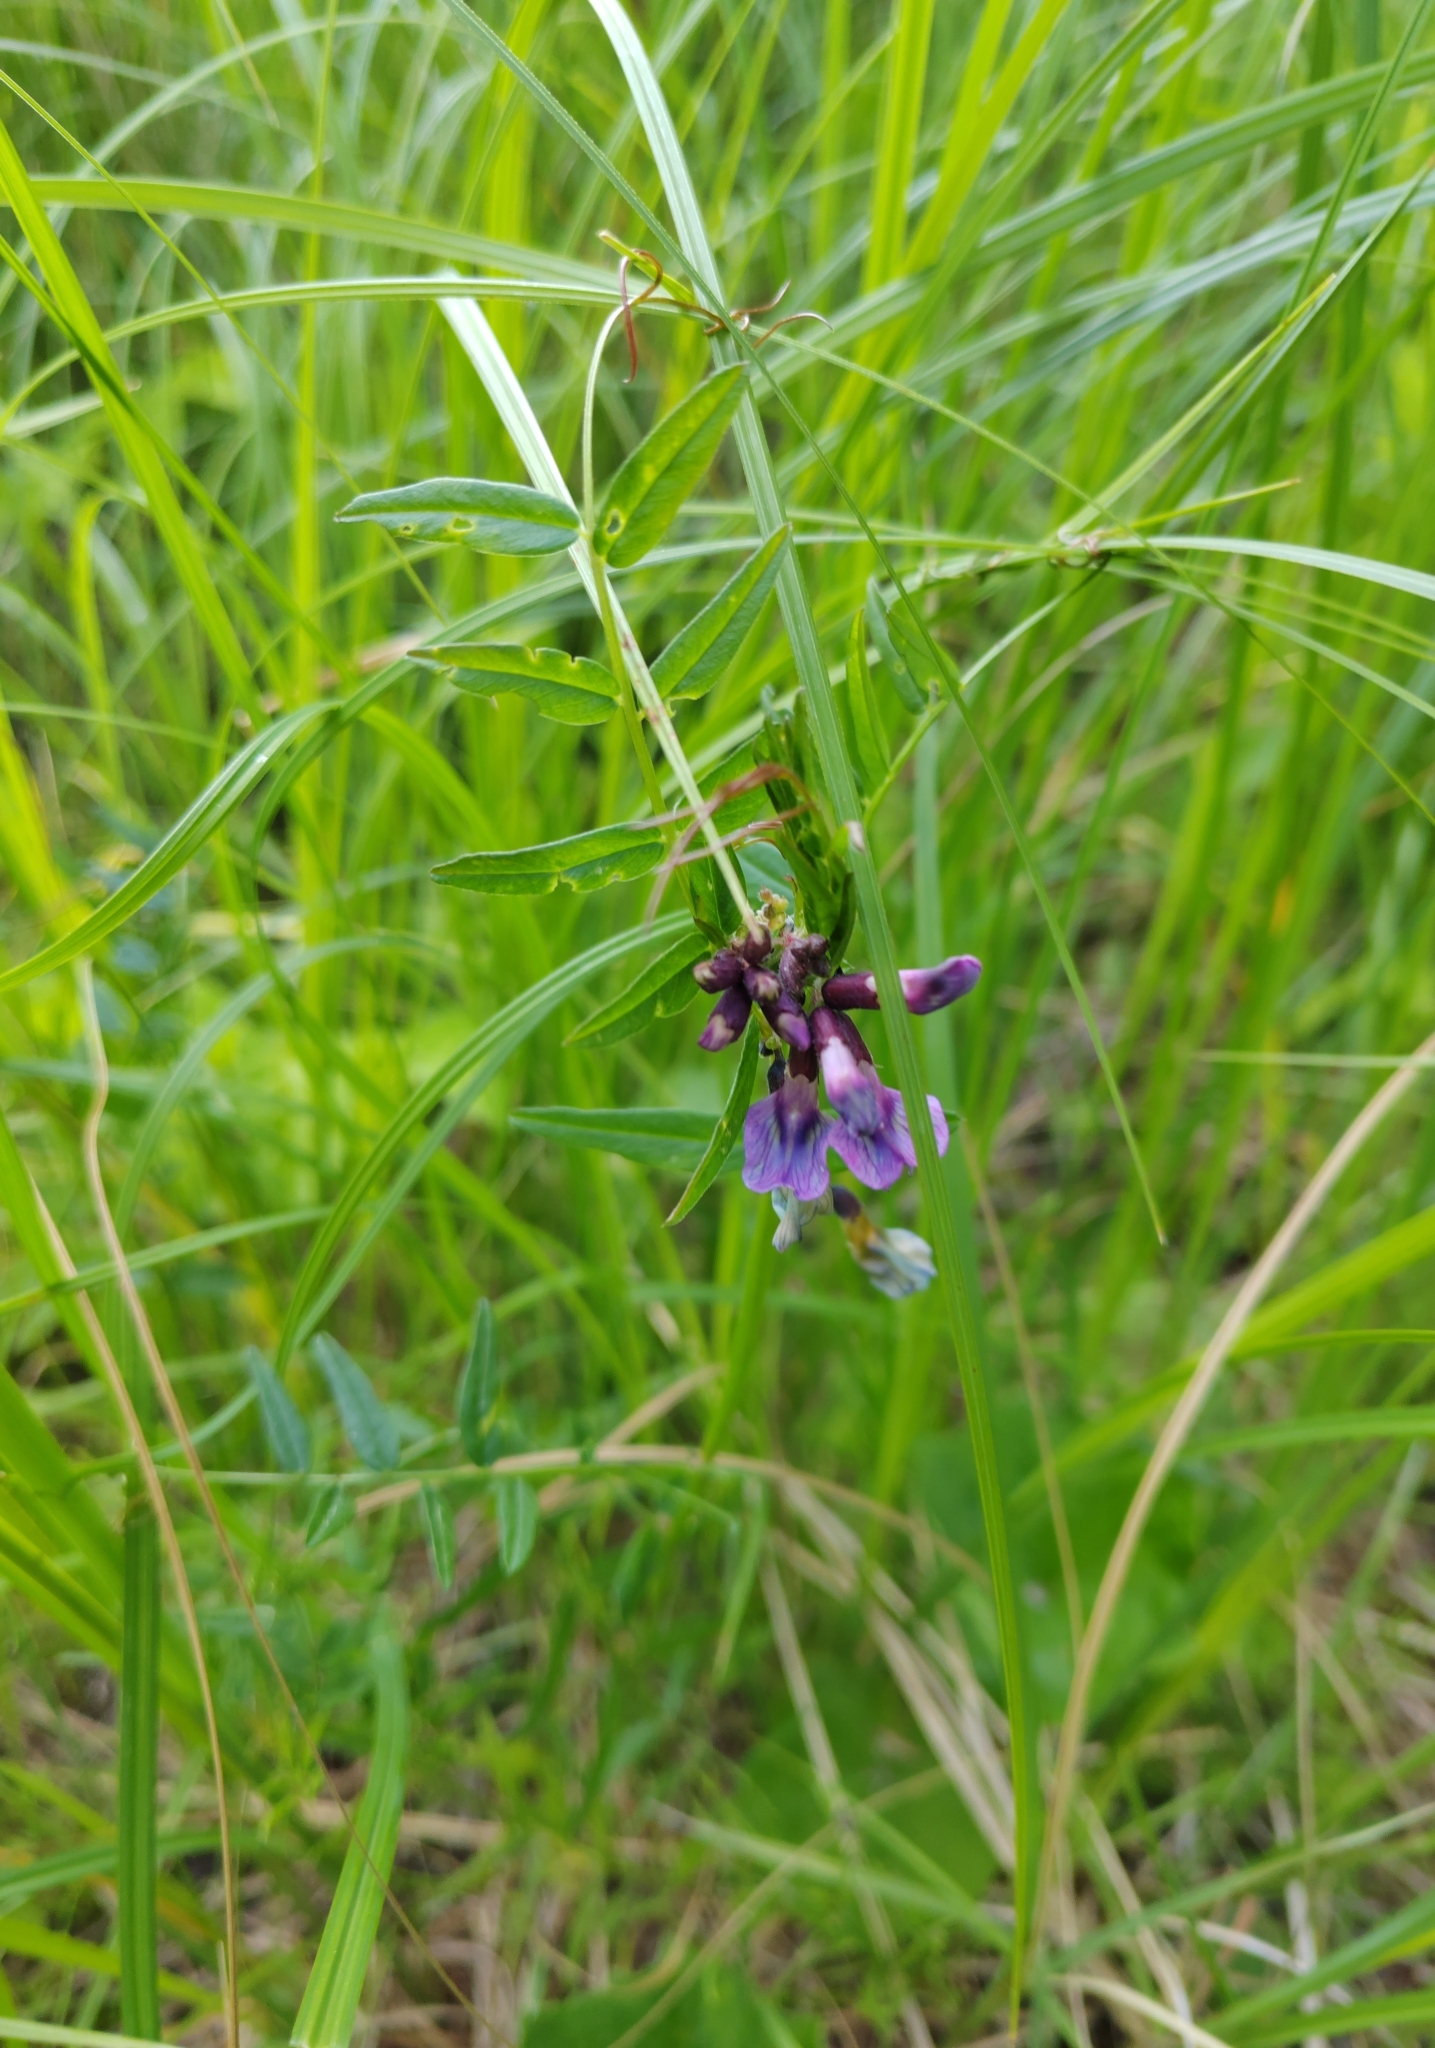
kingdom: Plantae
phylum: Tracheophyta
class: Magnoliopsida
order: Fabales
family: Fabaceae
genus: Vicia
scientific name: Vicia sepium
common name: Bush vetch
